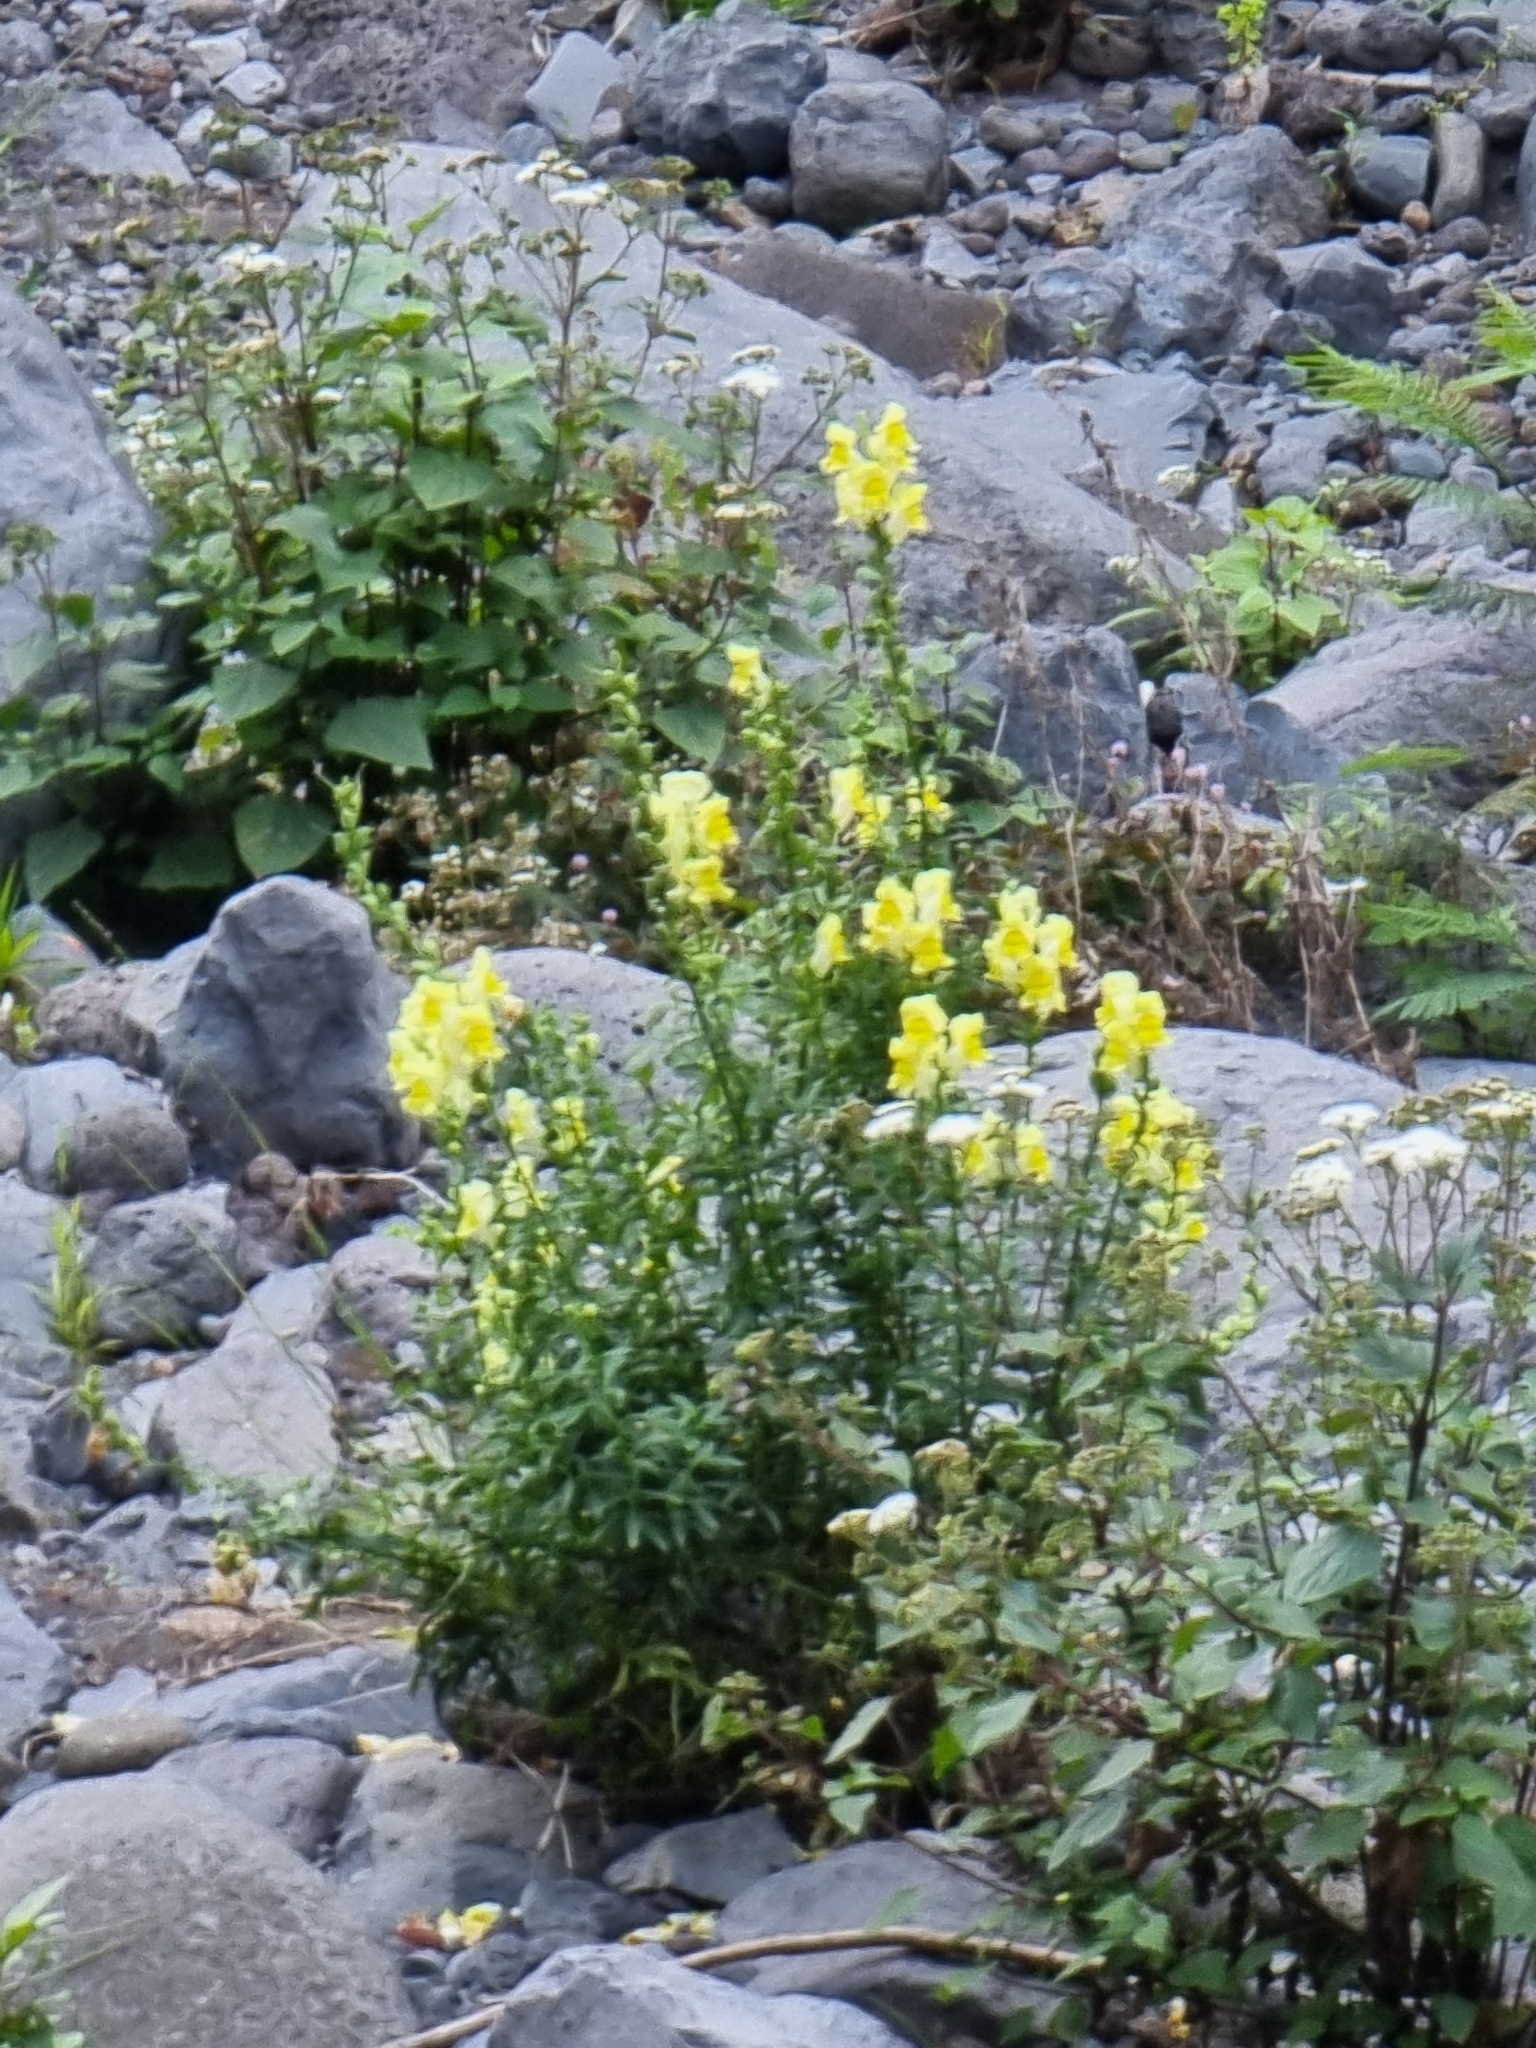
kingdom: Plantae
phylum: Tracheophyta
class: Magnoliopsida
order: Lamiales
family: Plantaginaceae
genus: Antirrhinum
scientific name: Antirrhinum majus
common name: Snapdragon
